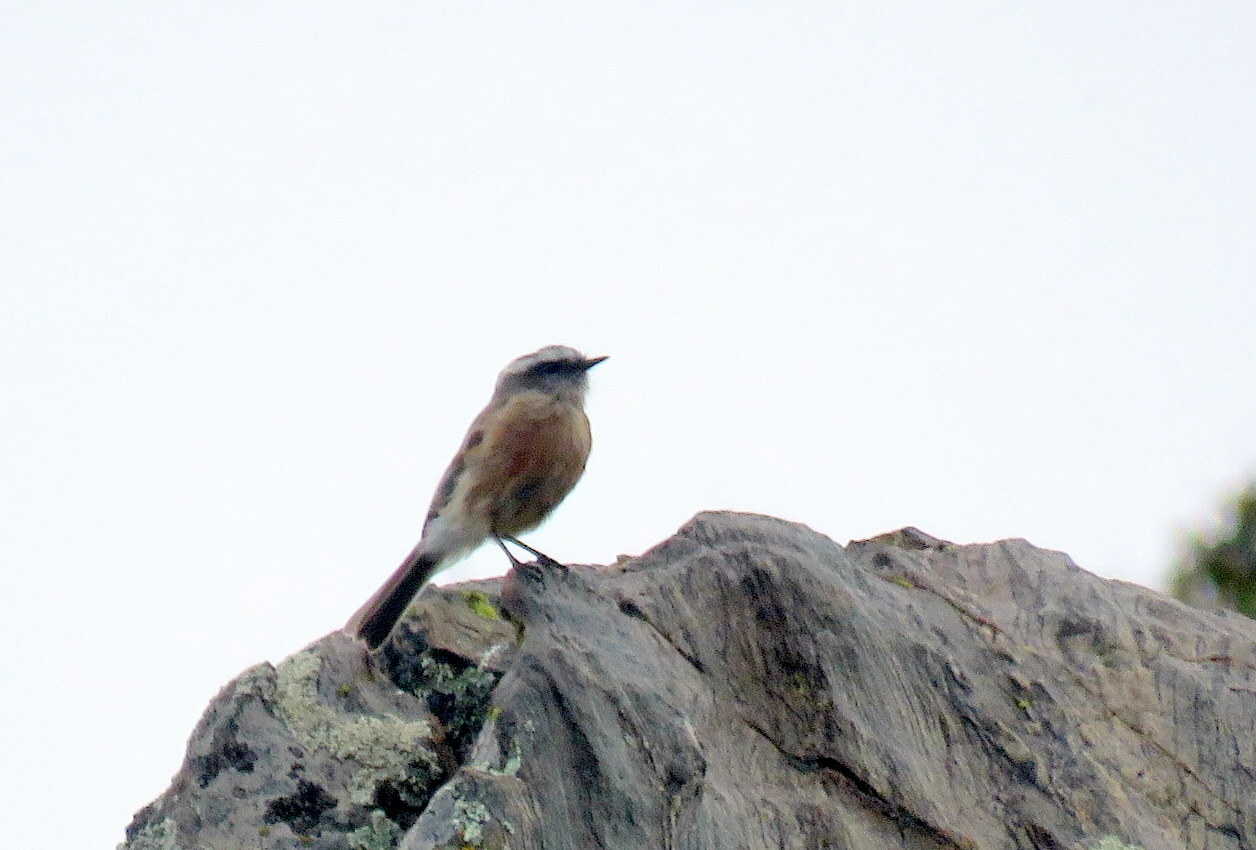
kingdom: Animalia
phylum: Chordata
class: Aves
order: Passeriformes
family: Tyrannidae
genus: Ochthoeca
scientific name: Ochthoeca oenanthoides
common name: D'orbigny's chat-tyrant
